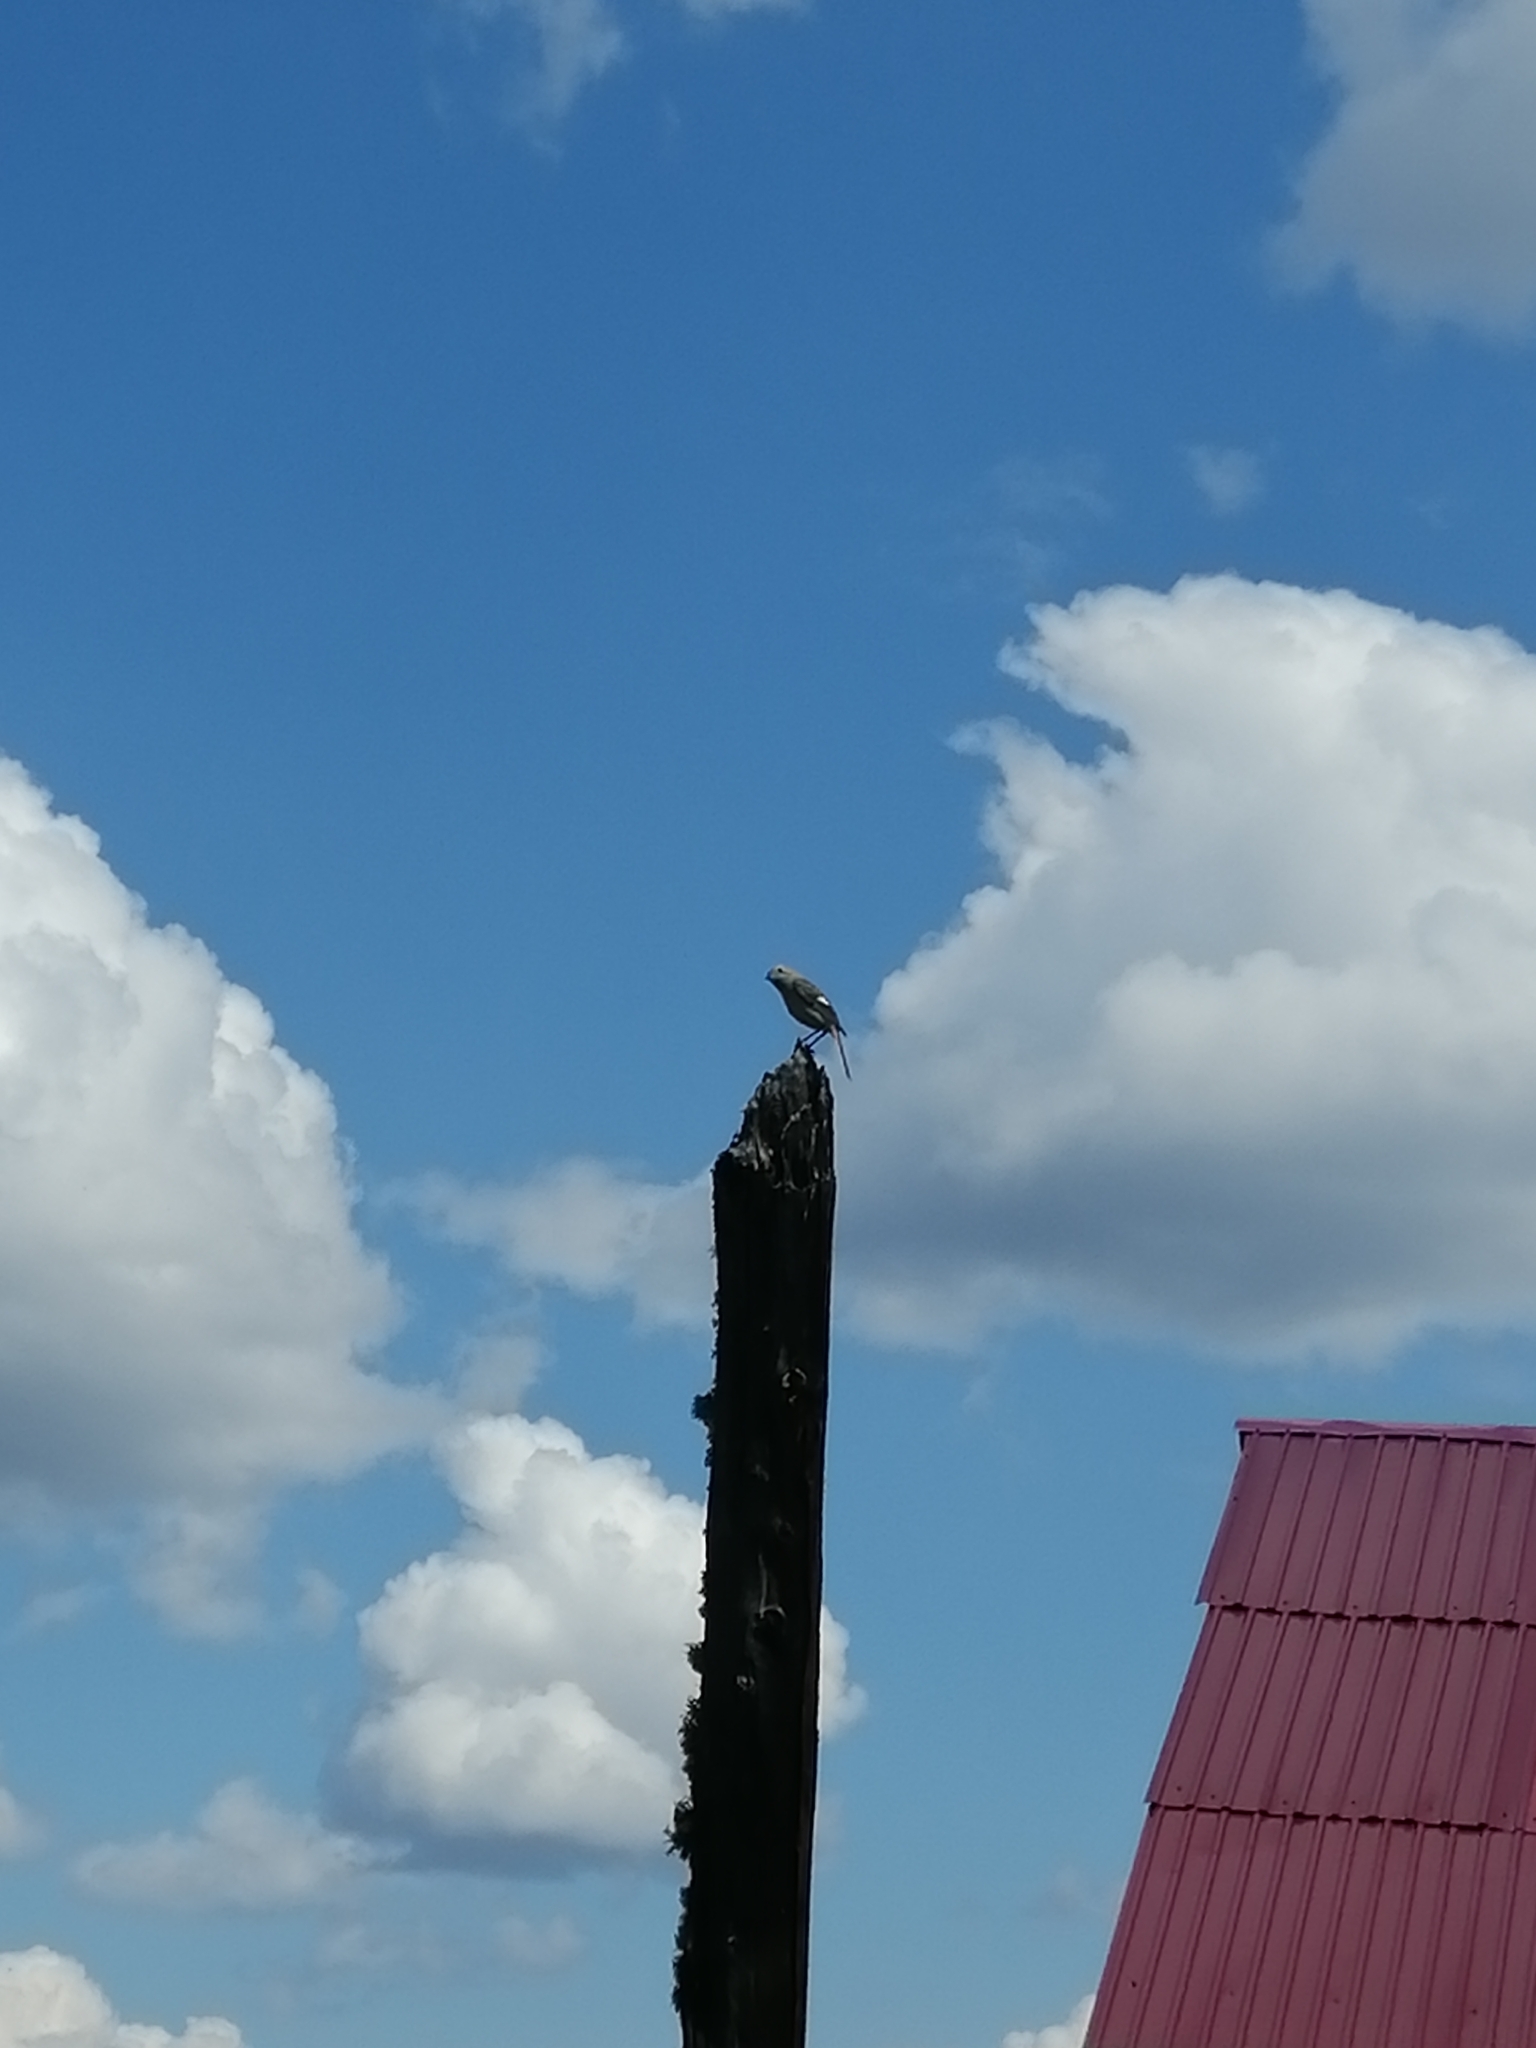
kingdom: Animalia
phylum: Chordata
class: Aves
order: Passeriformes
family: Muscicapidae
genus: Phoenicurus
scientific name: Phoenicurus auroreus
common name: Daurian redstart
